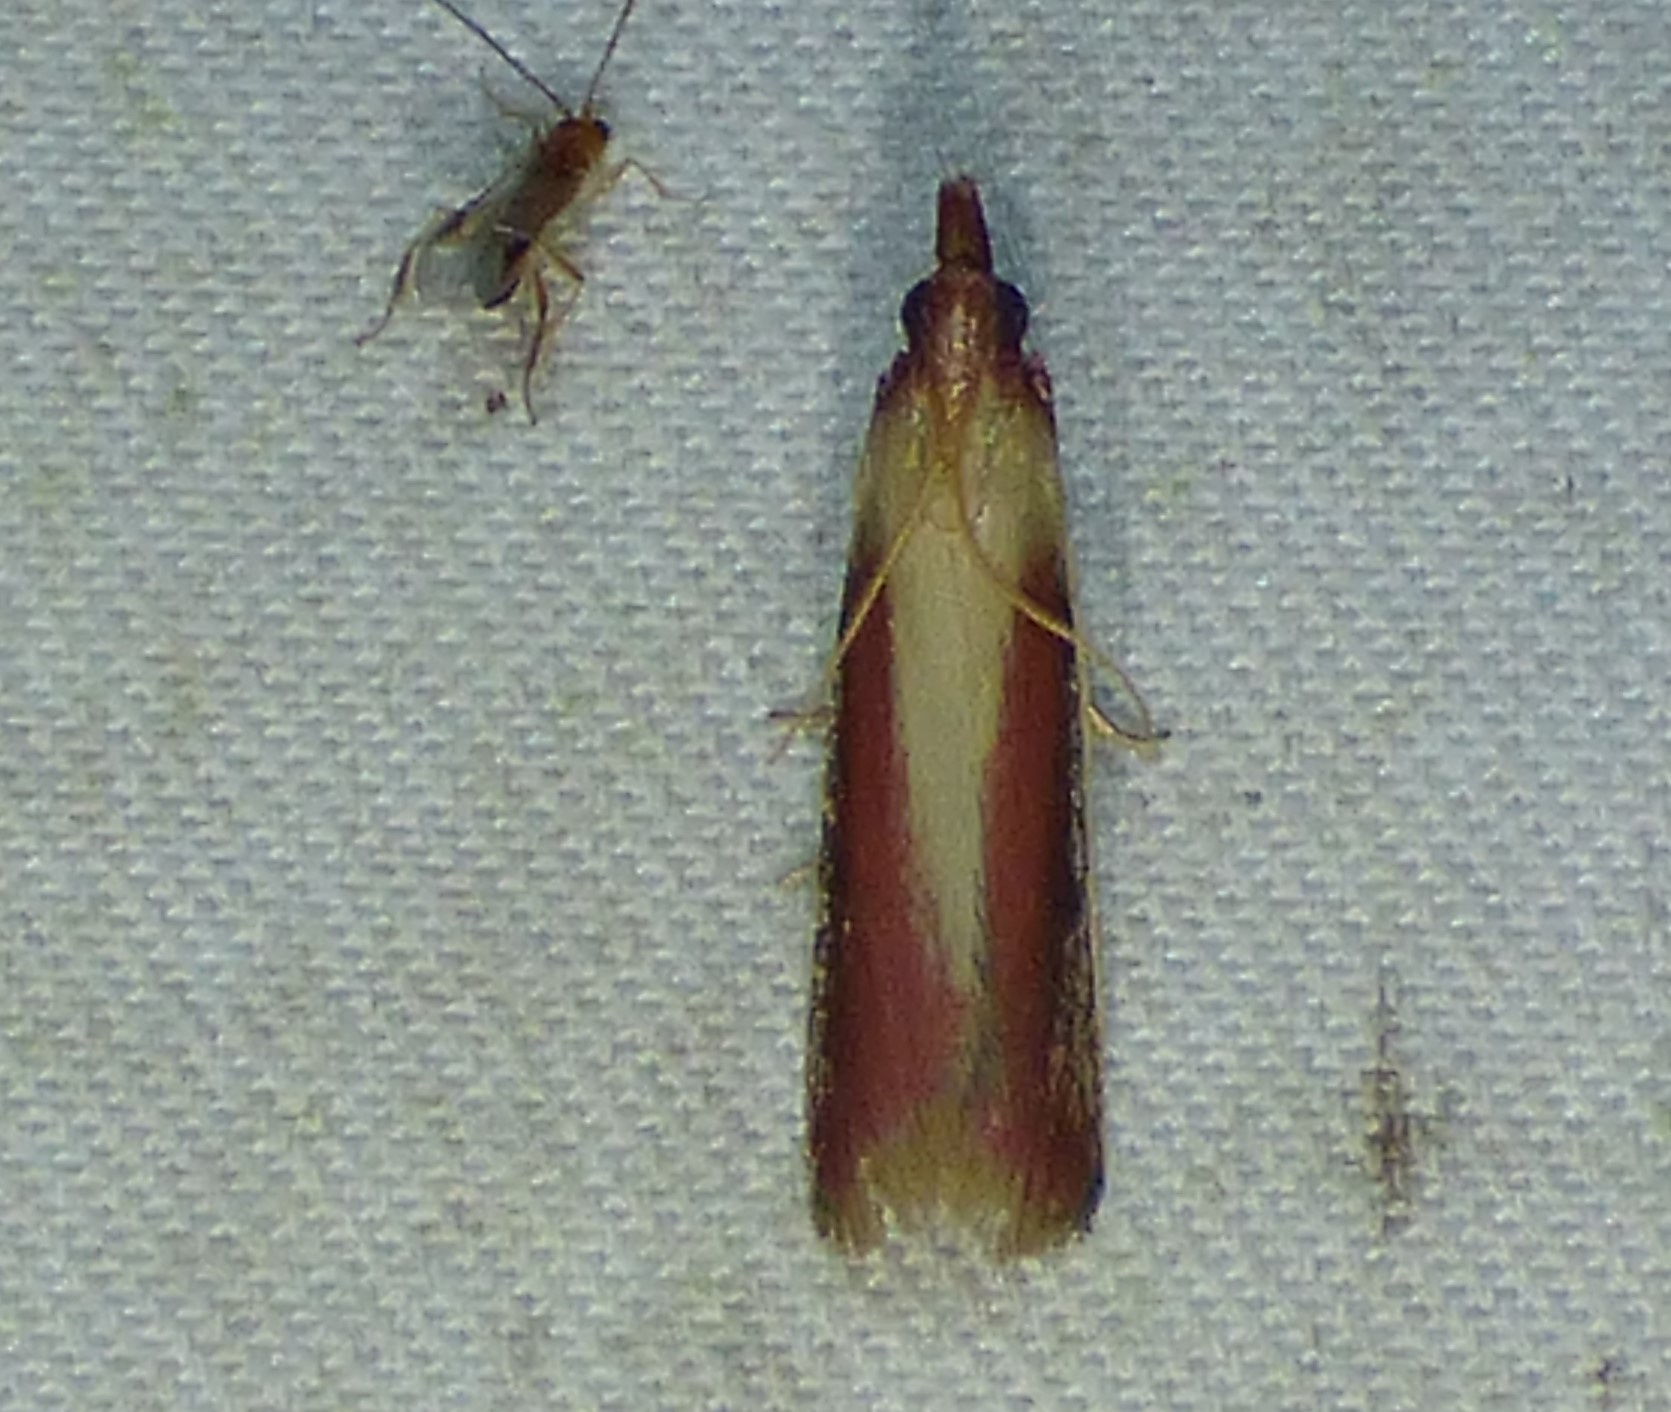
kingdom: Animalia
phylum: Arthropoda
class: Insecta
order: Lepidoptera
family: Pyralidae
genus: Peoria
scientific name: Peoria approximella
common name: Carmine snout
